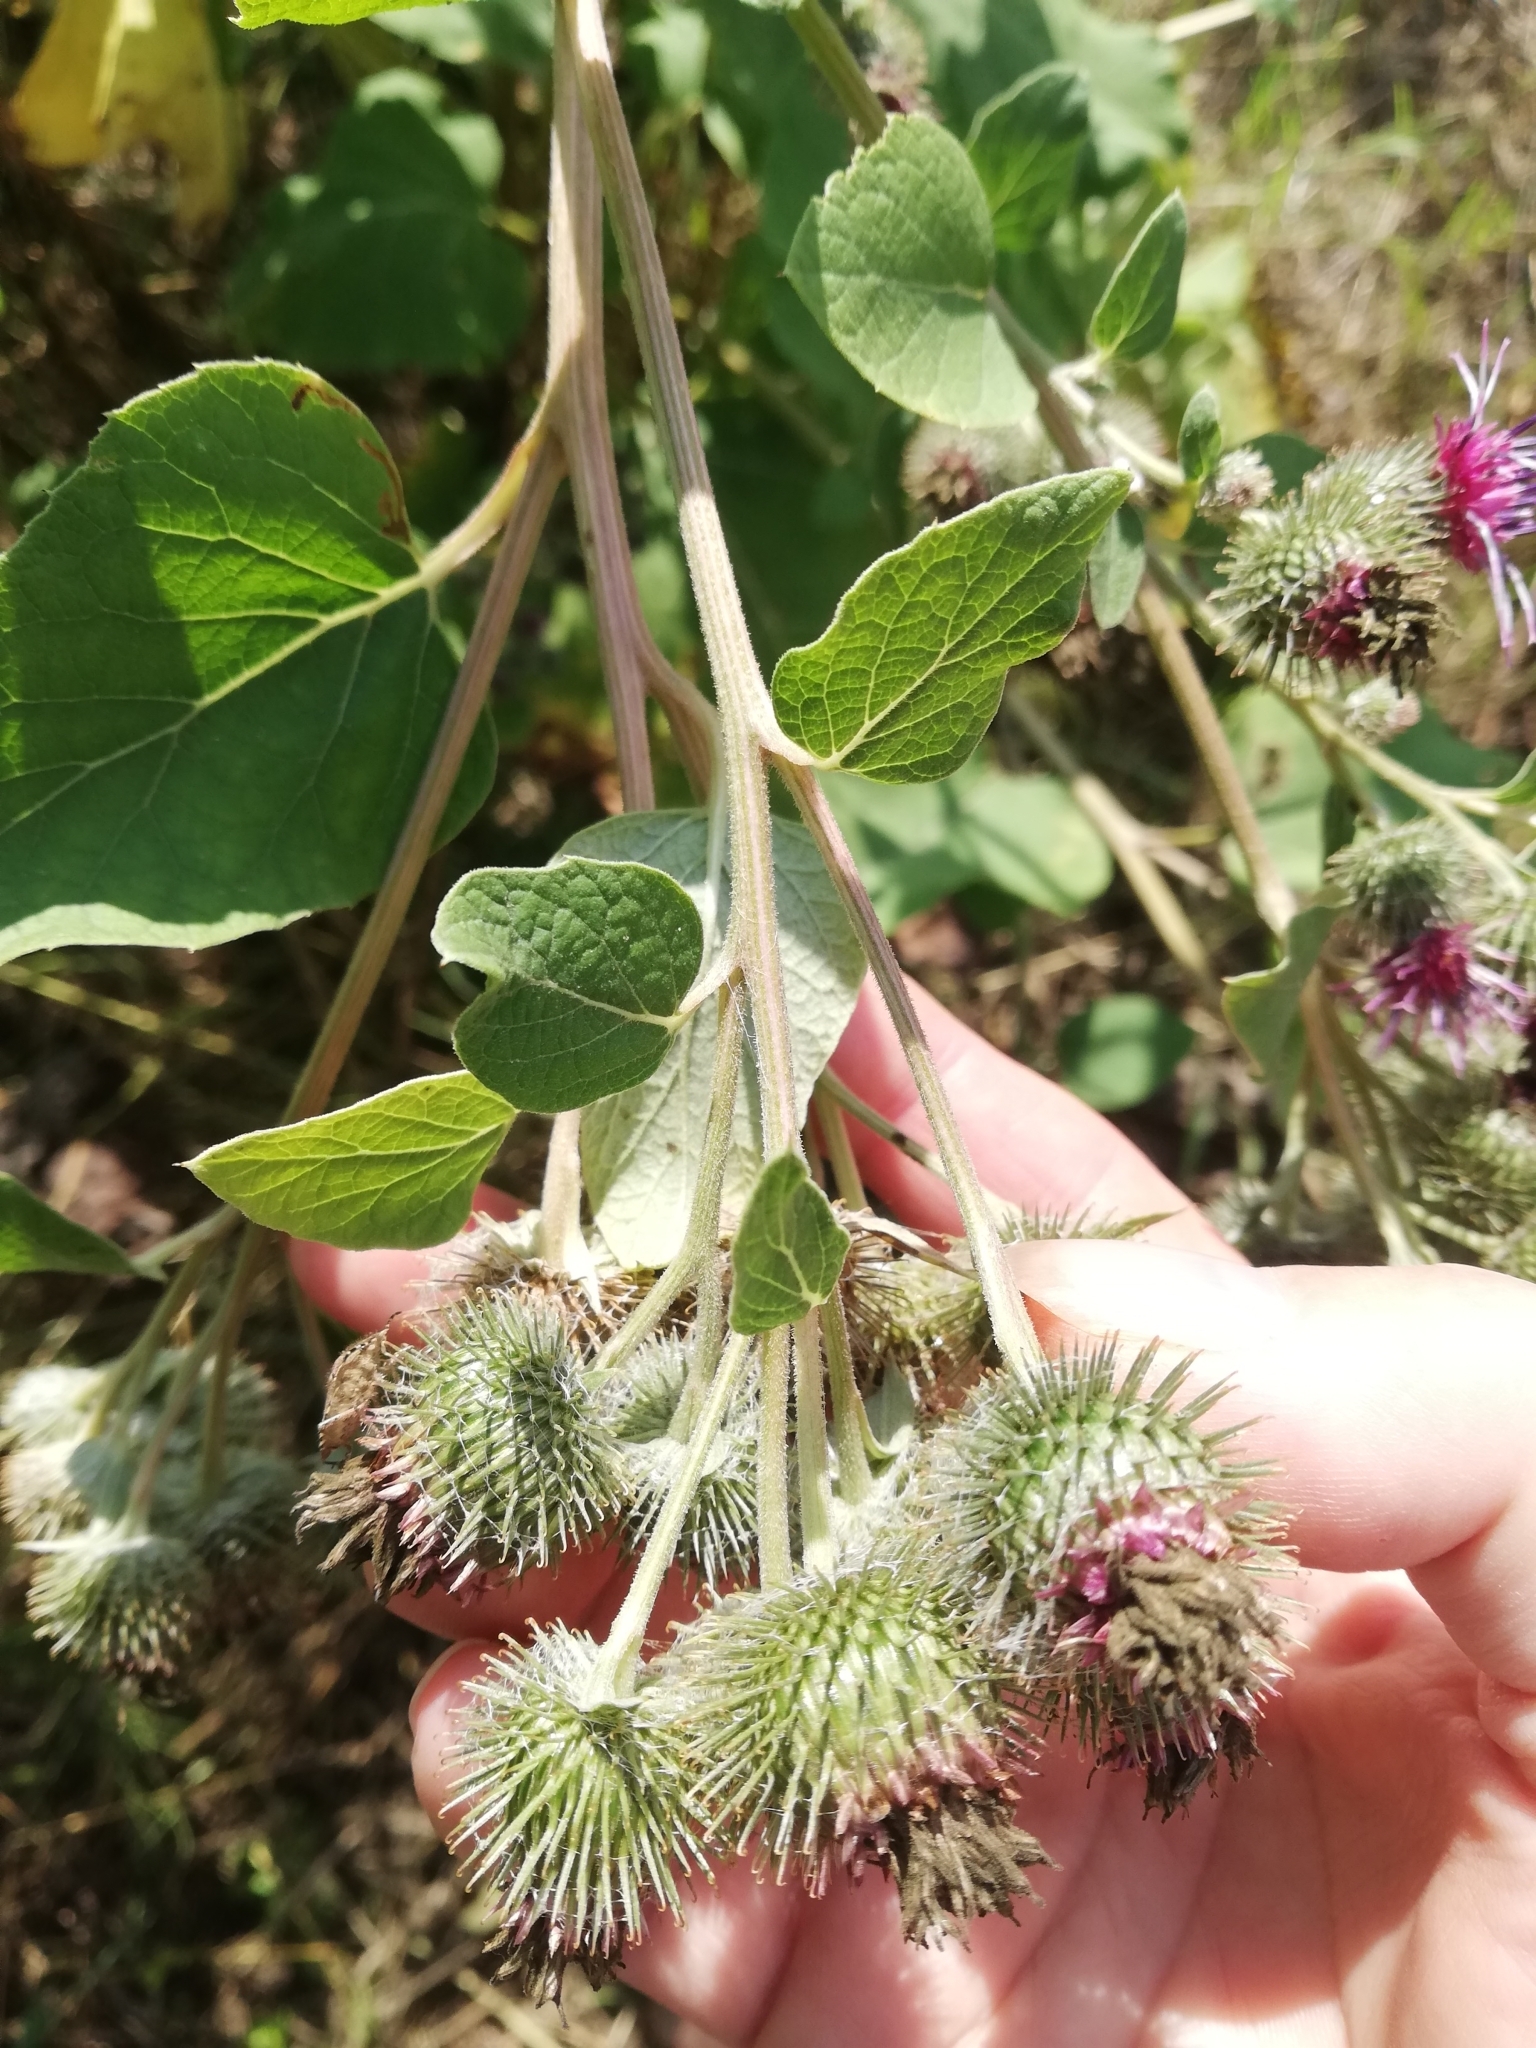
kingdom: Plantae
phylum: Tracheophyta
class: Magnoliopsida
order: Asterales
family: Asteraceae
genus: Arctium
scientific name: Arctium tomentosum
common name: Woolly burdock
